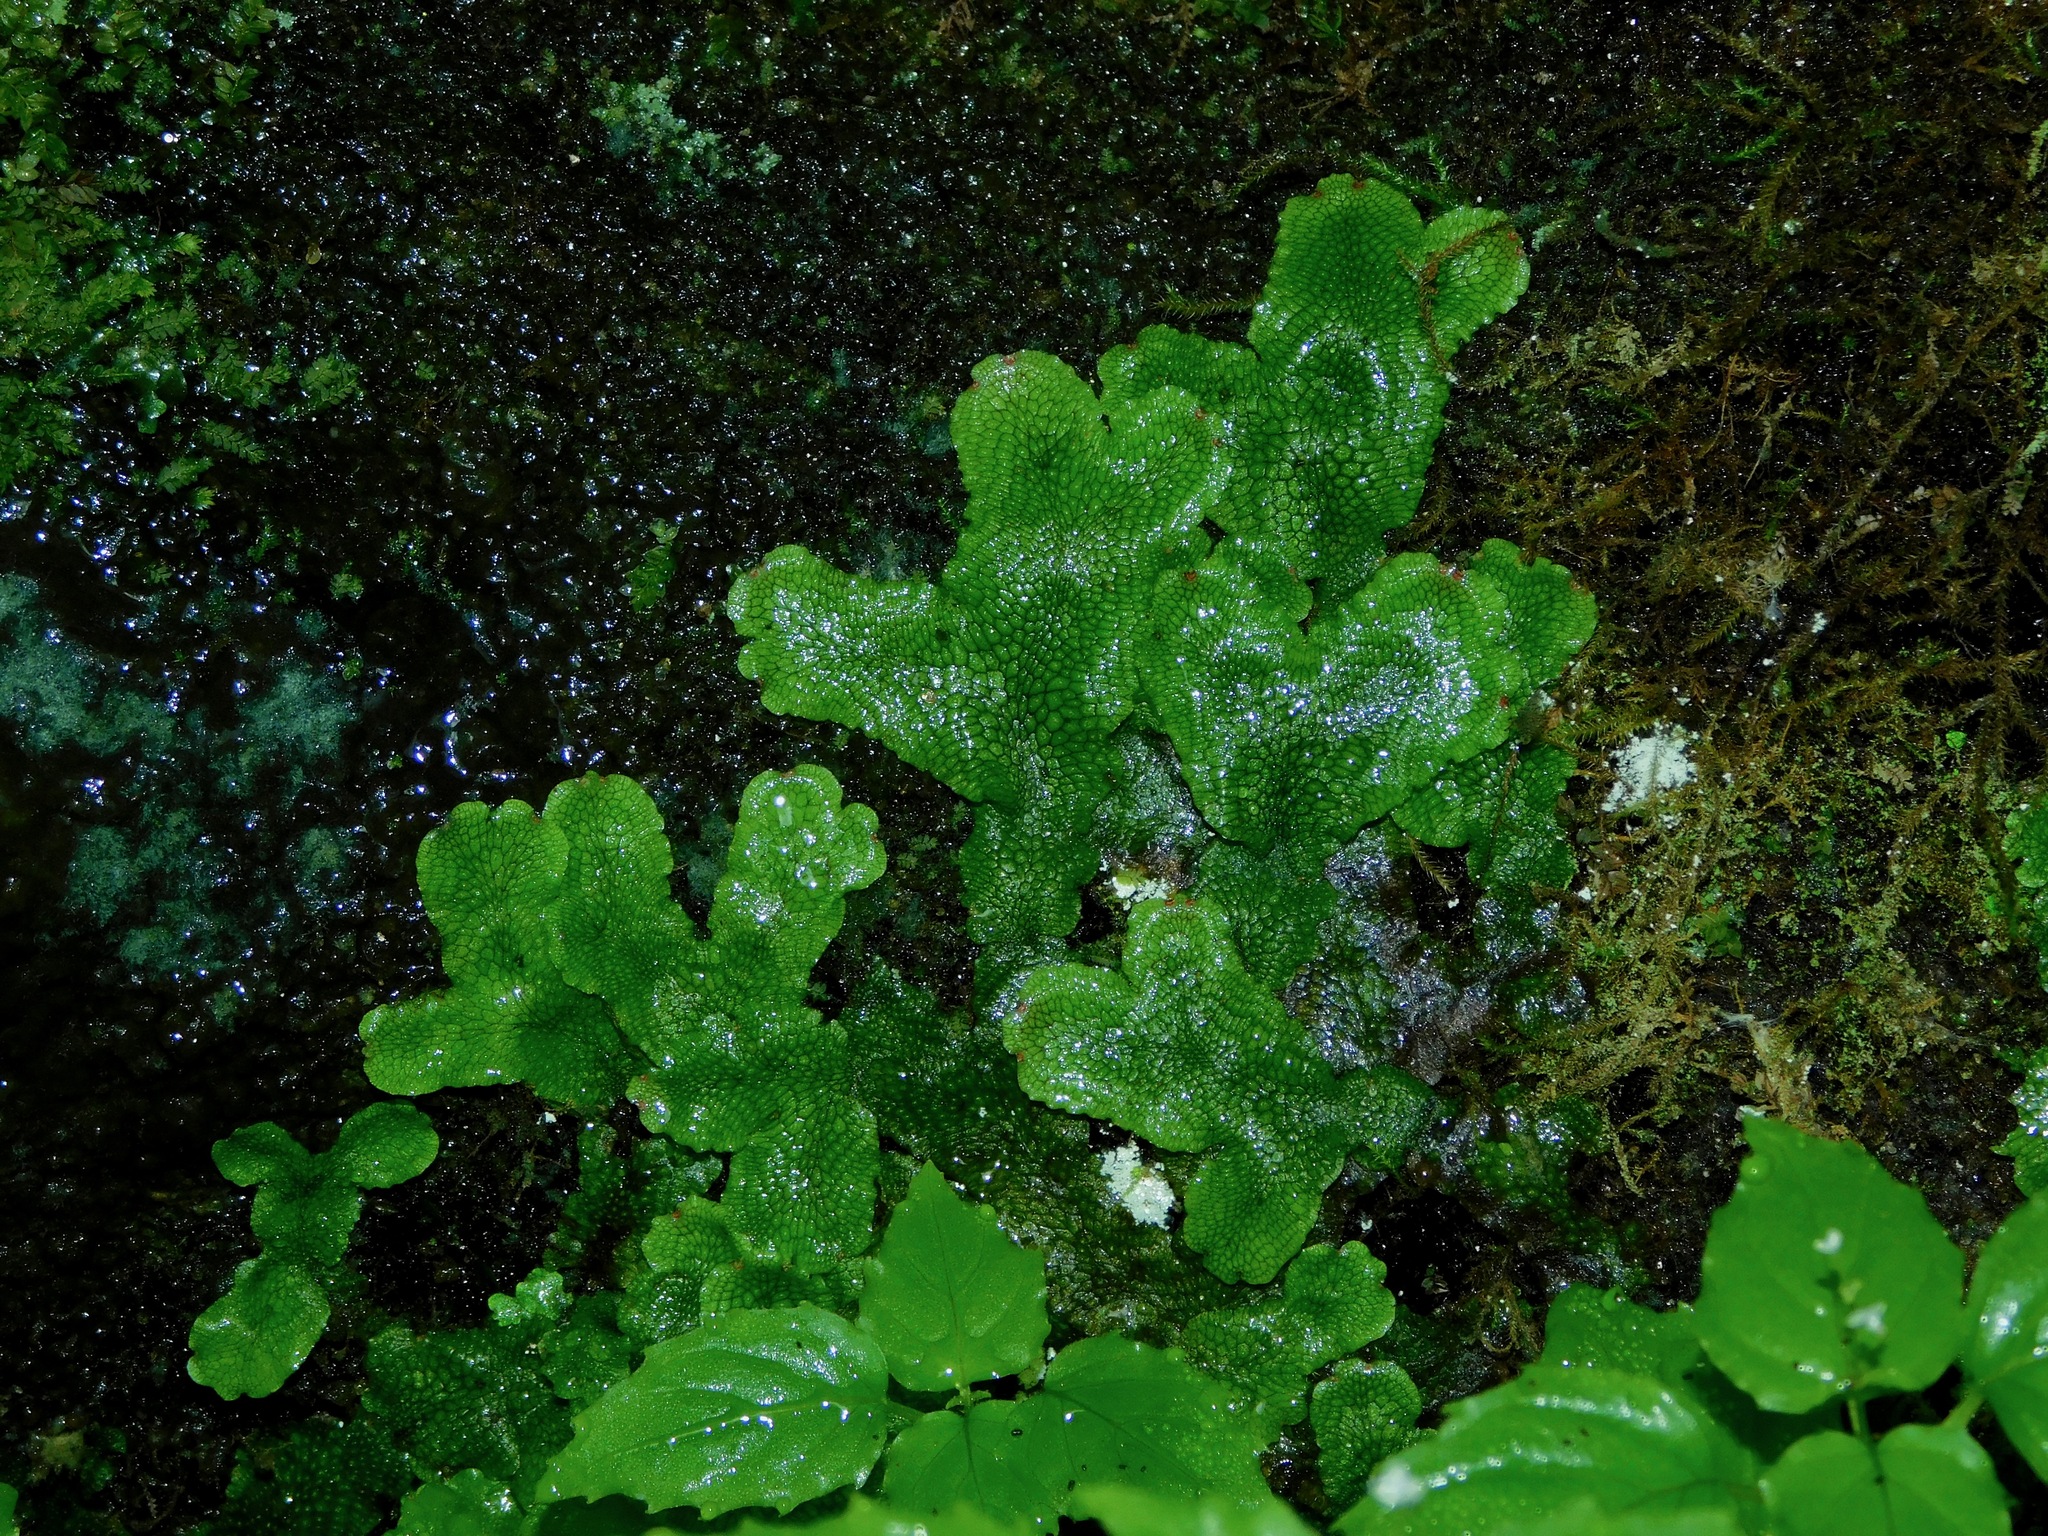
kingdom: Plantae
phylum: Marchantiophyta
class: Marchantiopsida
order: Marchantiales
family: Conocephalaceae
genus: Conocephalum
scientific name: Conocephalum salebrosum
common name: Cat-tongue liverwort
